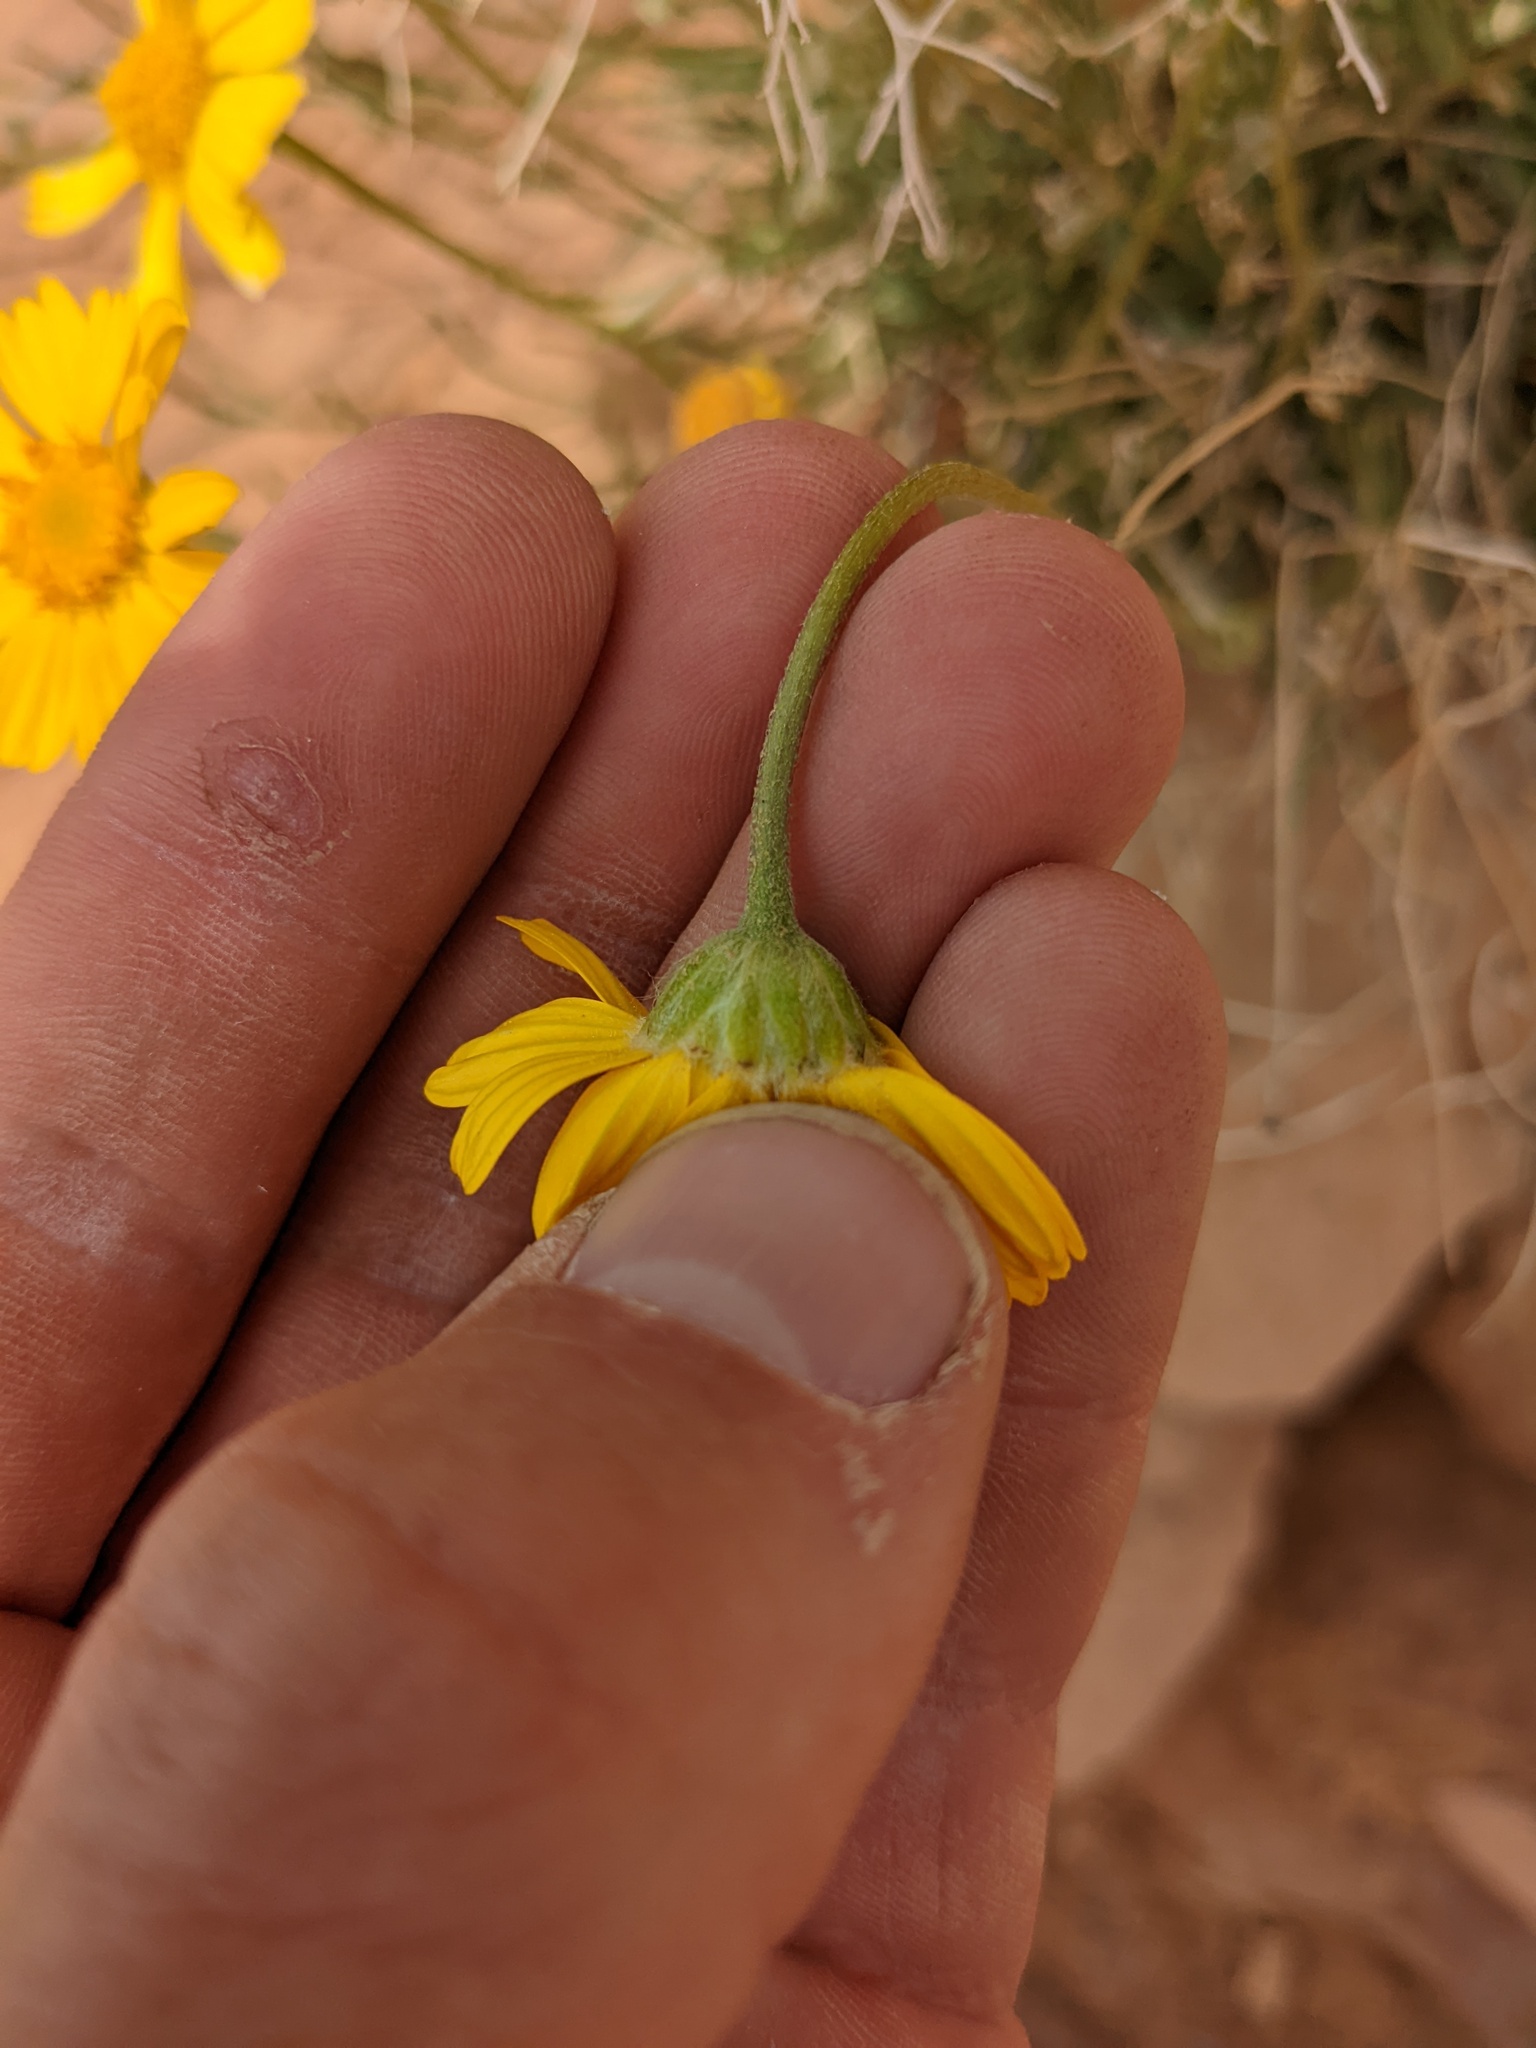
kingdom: Plantae
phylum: Tracheophyta
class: Magnoliopsida
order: Asterales
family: Asteraceae
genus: Tetraneuris
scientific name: Tetraneuris acaulis
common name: Butte marigold
